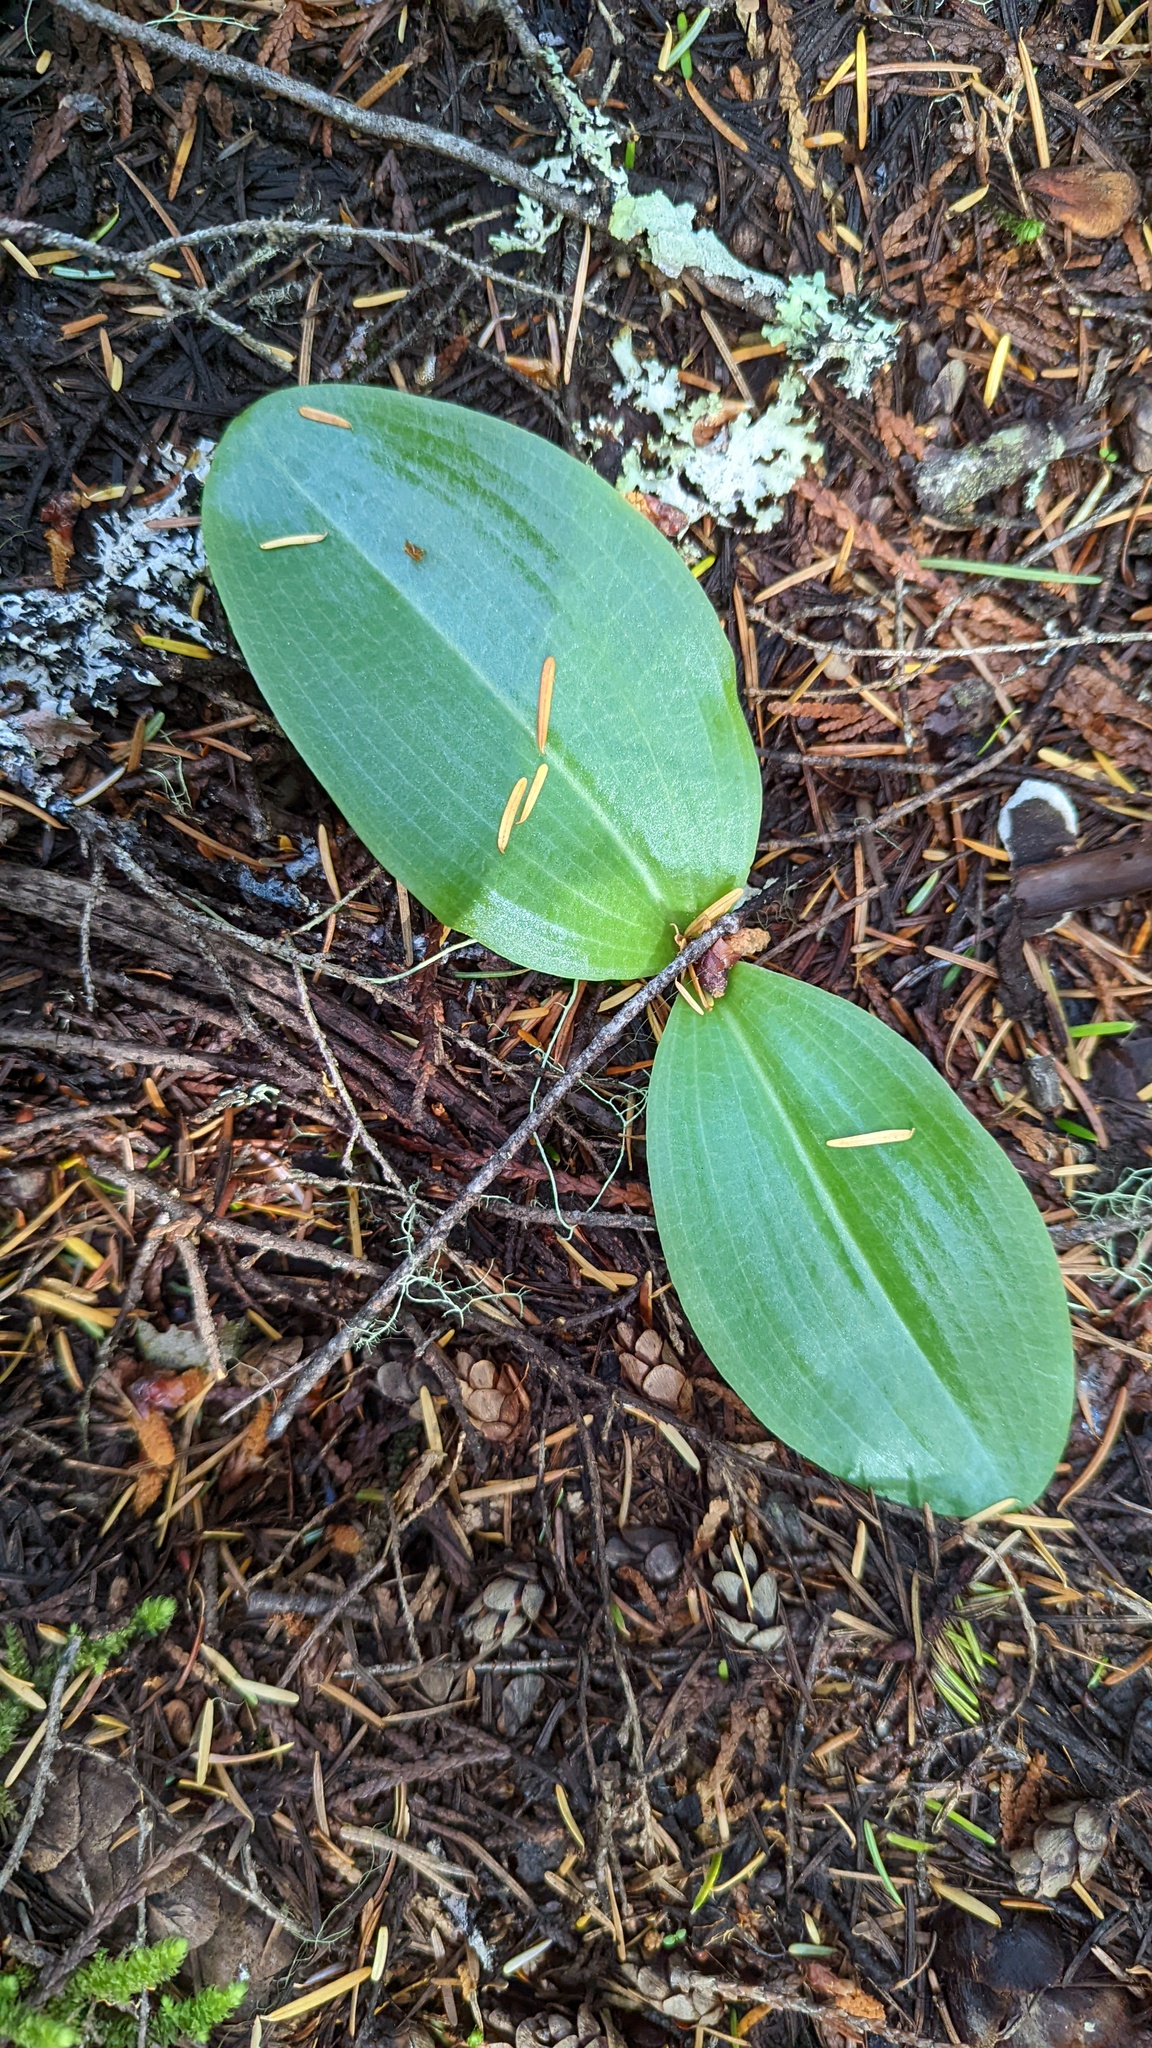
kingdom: Plantae
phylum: Tracheophyta
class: Liliopsida
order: Asparagales
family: Orchidaceae
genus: Platanthera
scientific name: Platanthera orbiculata
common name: Large round-leaved orchid
